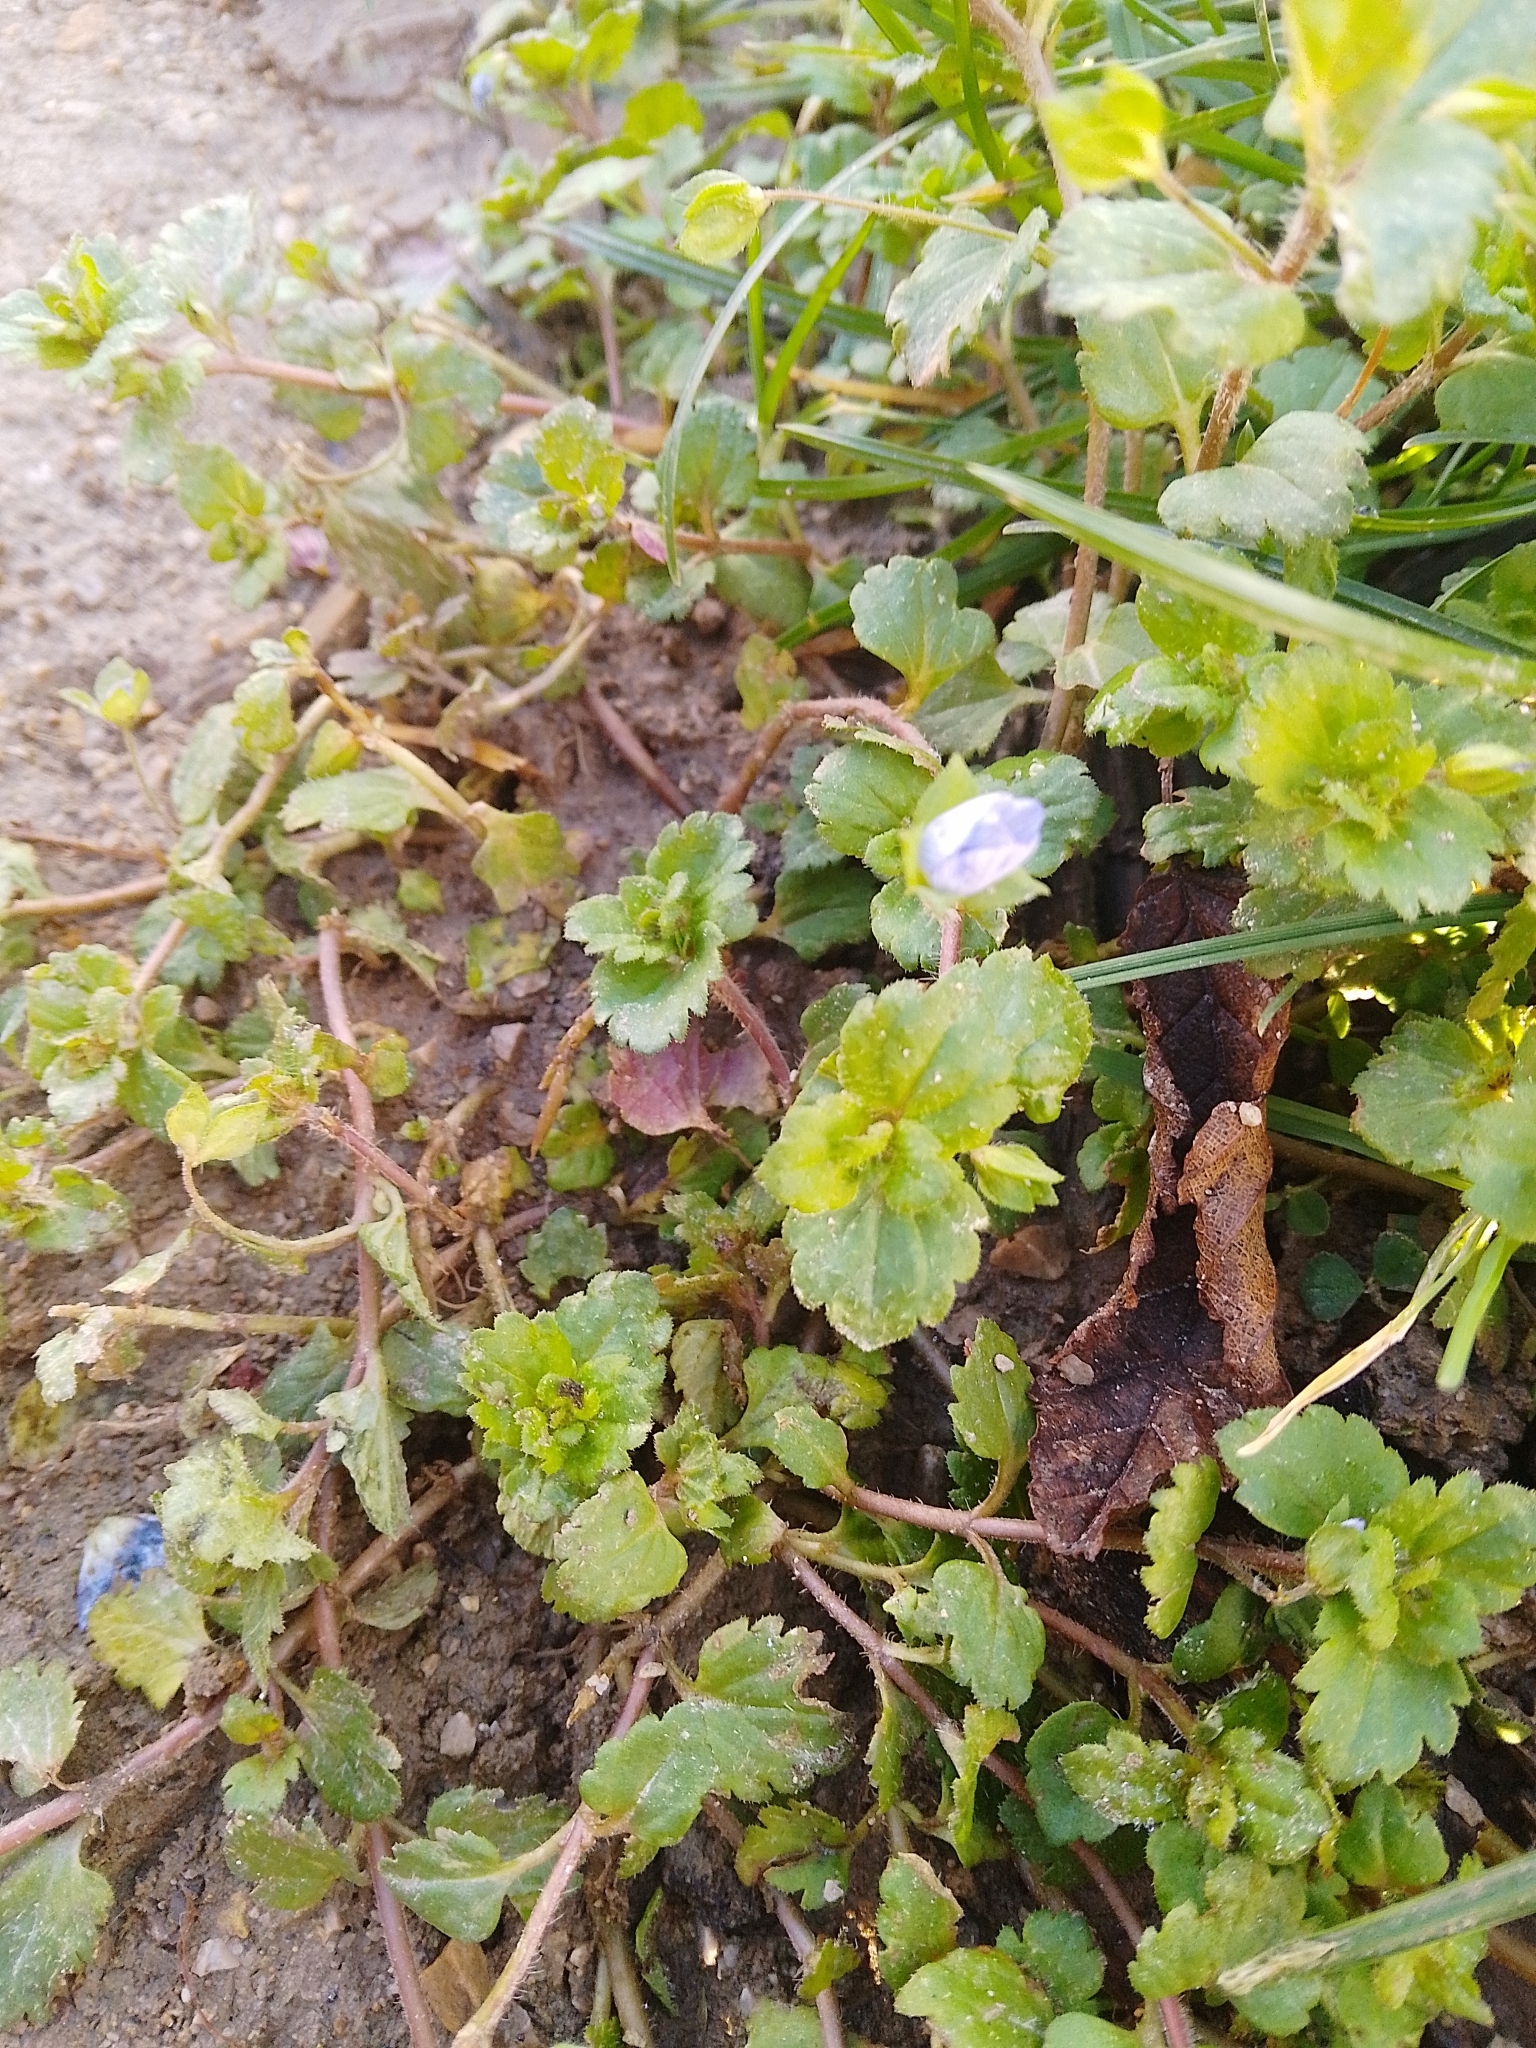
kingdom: Plantae
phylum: Tracheophyta
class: Magnoliopsida
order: Lamiales
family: Plantaginaceae
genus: Veronica
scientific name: Veronica persica
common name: Common field-speedwell
